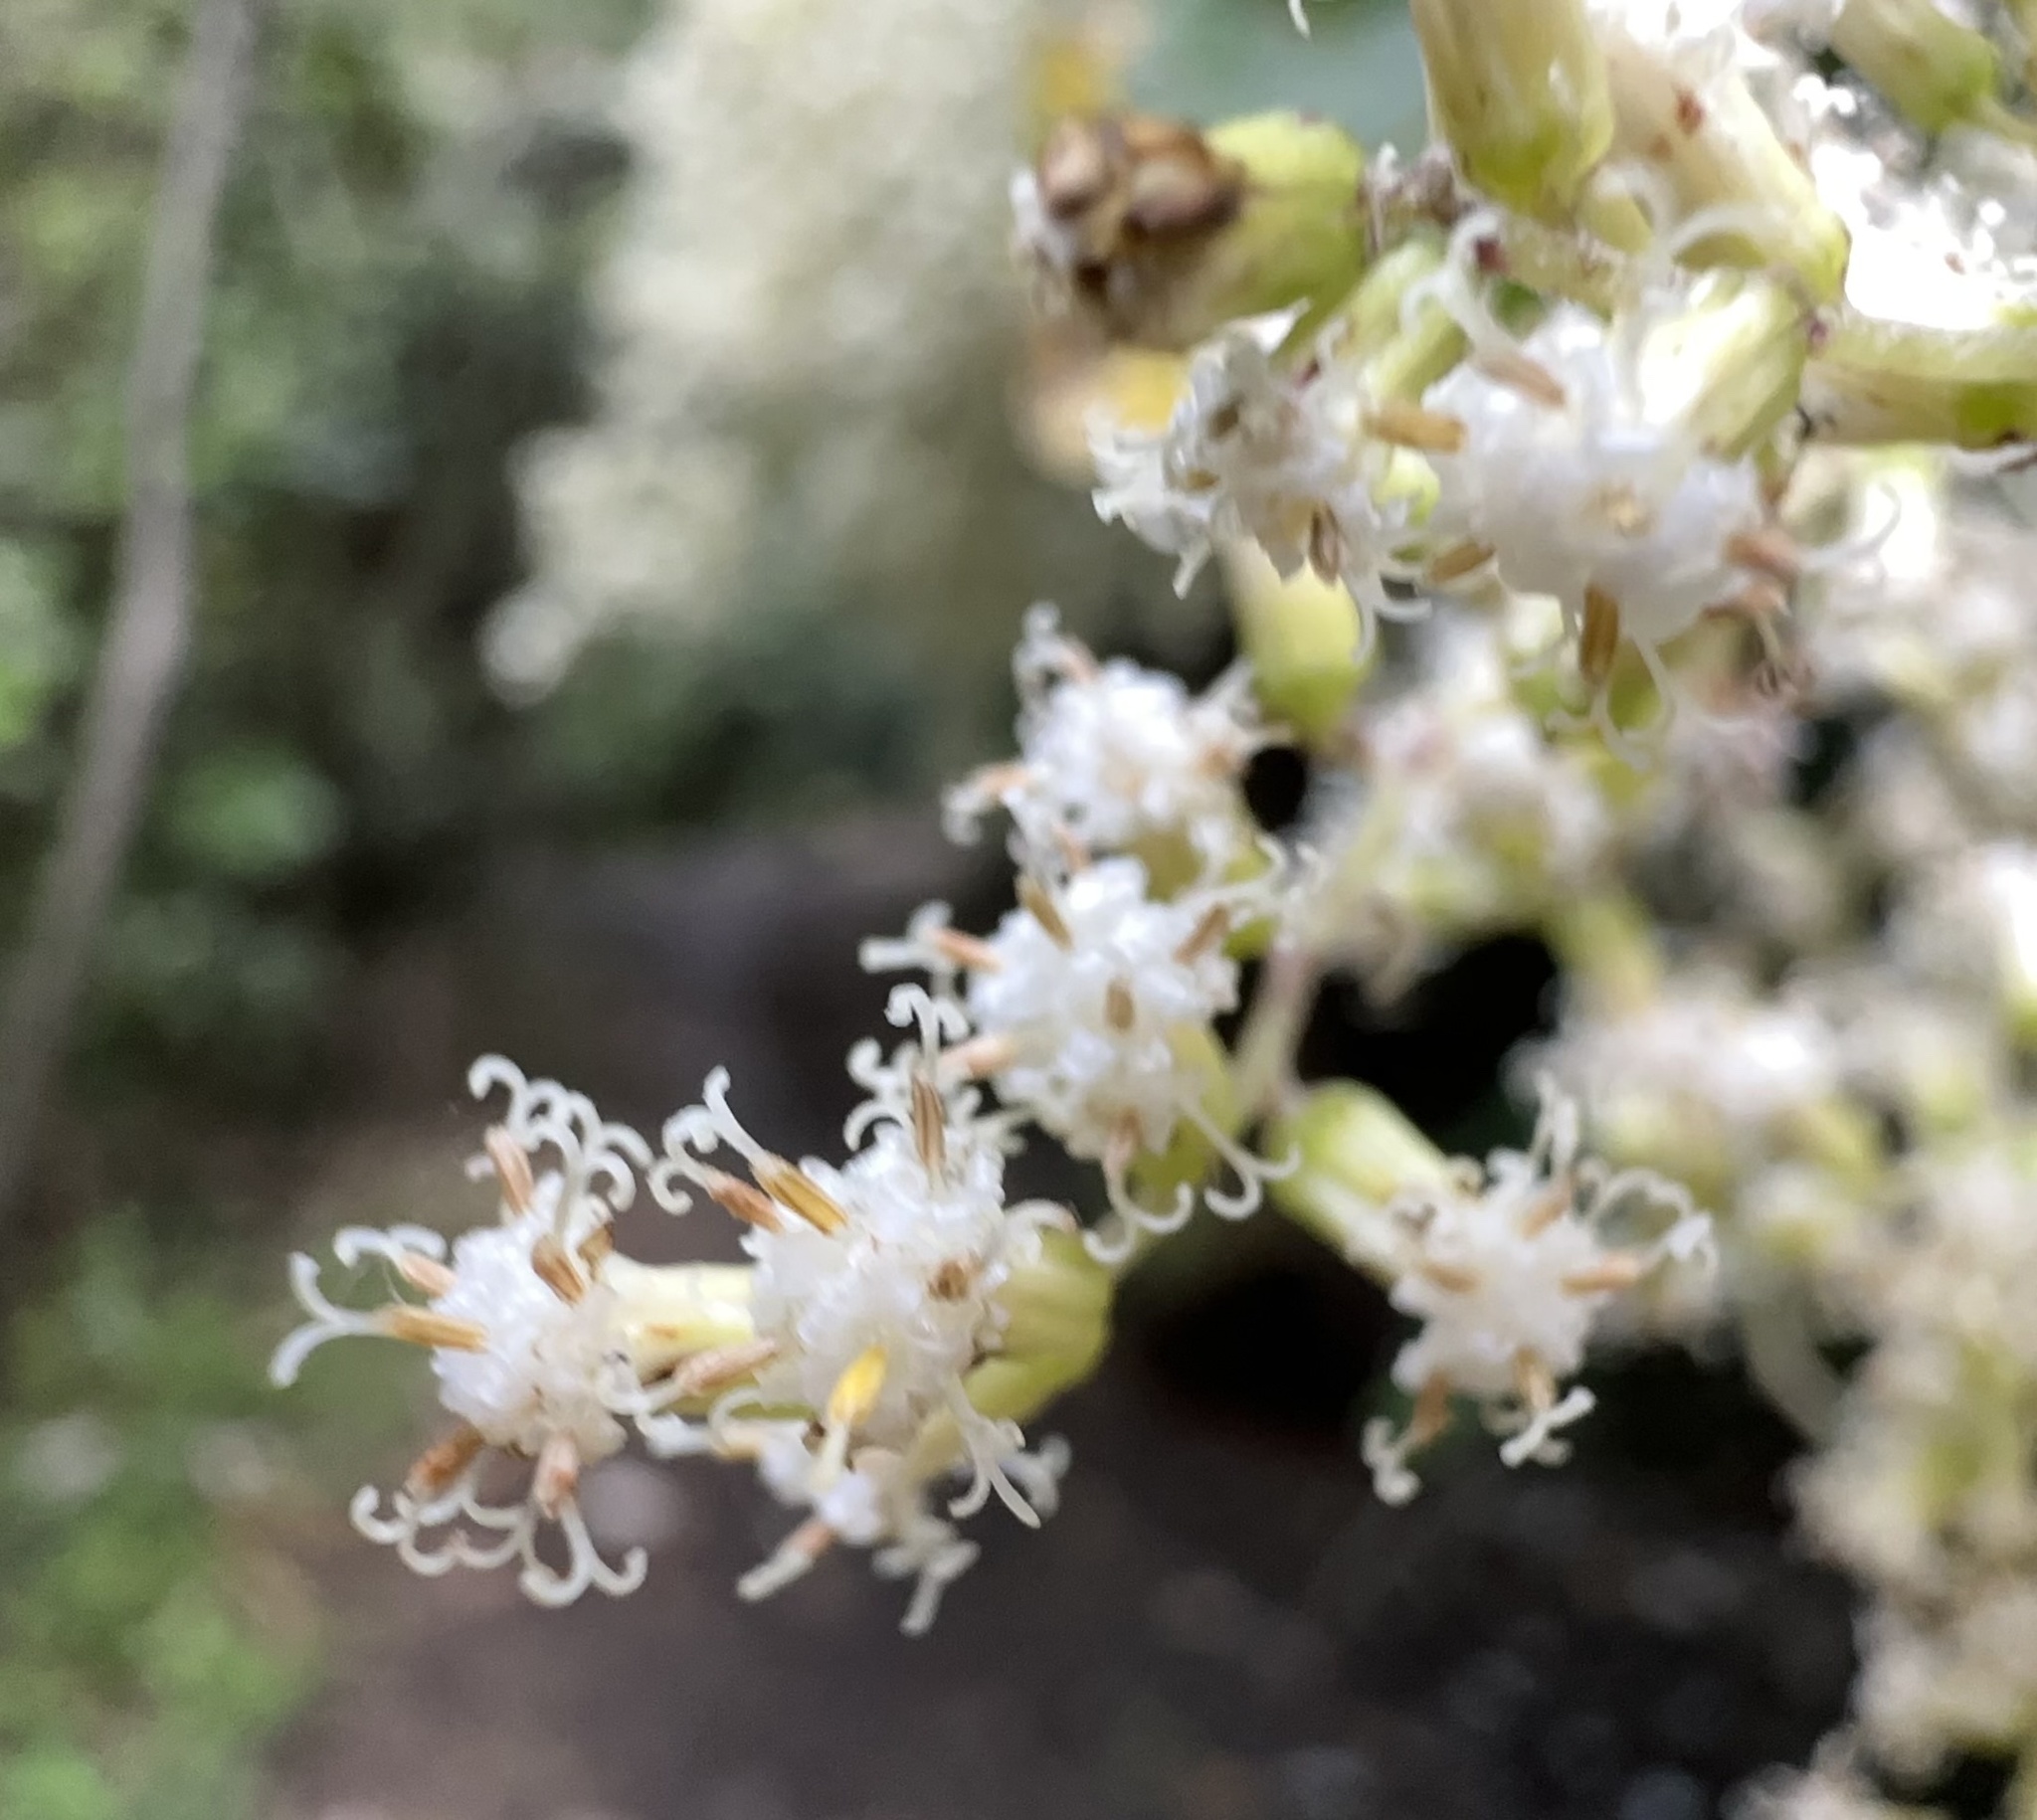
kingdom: Plantae
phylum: Tracheophyta
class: Magnoliopsida
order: Asterales
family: Asteraceae
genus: Brachyglottis
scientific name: Brachyglottis repanda
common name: Hedge ragwort
